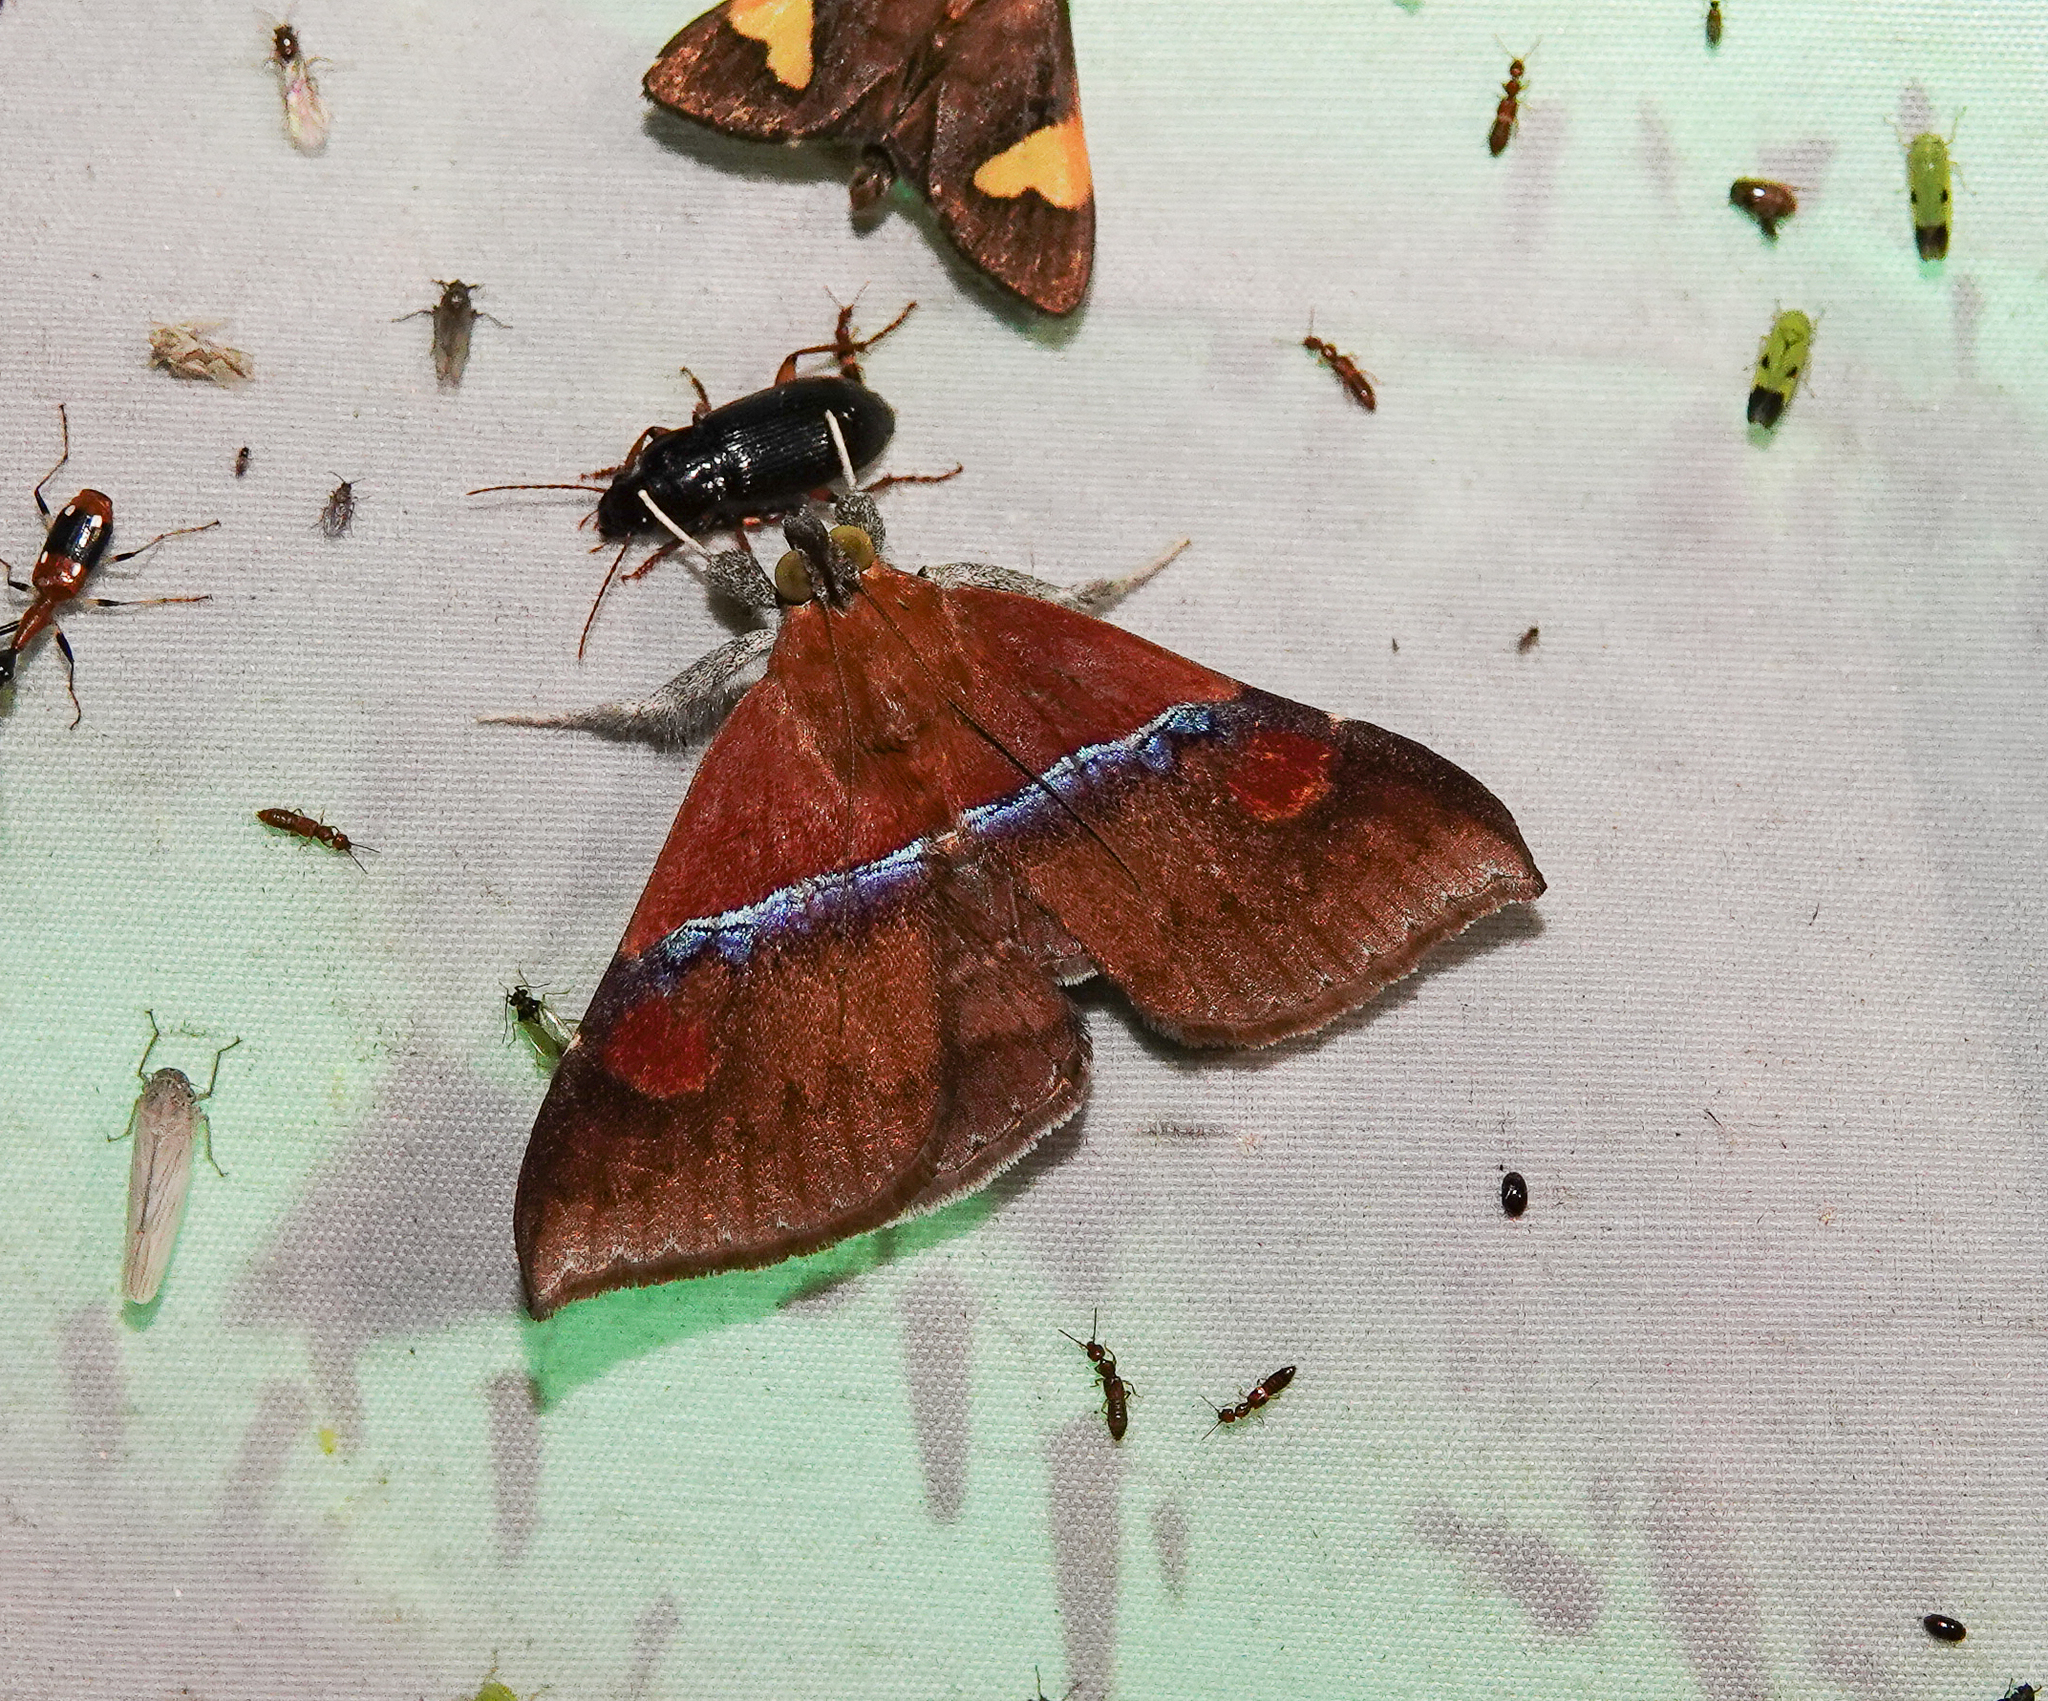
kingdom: Animalia
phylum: Arthropoda
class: Insecta
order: Lepidoptera
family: Erebidae
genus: Sympis
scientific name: Sympis rufibasis
